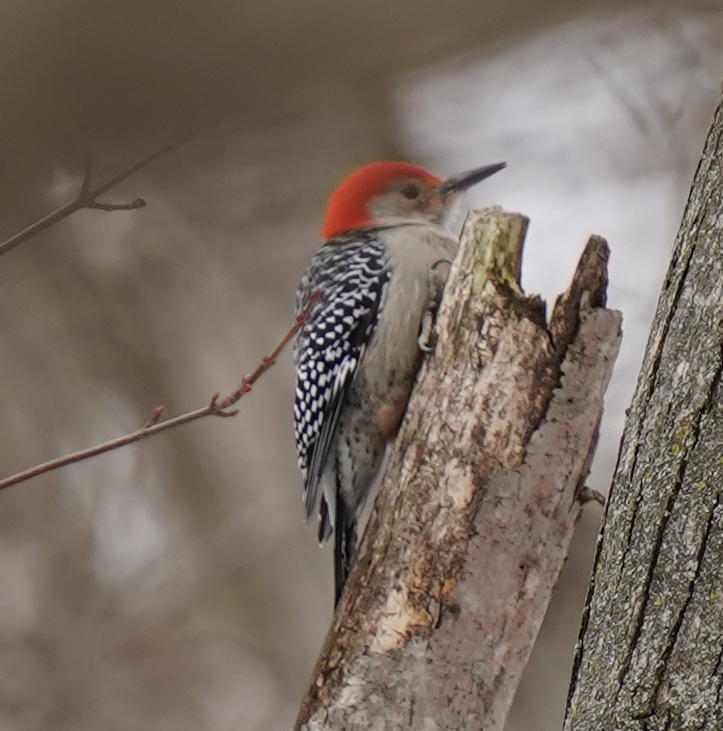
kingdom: Animalia
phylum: Chordata
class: Aves
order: Piciformes
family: Picidae
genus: Melanerpes
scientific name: Melanerpes carolinus
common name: Red-bellied woodpecker
